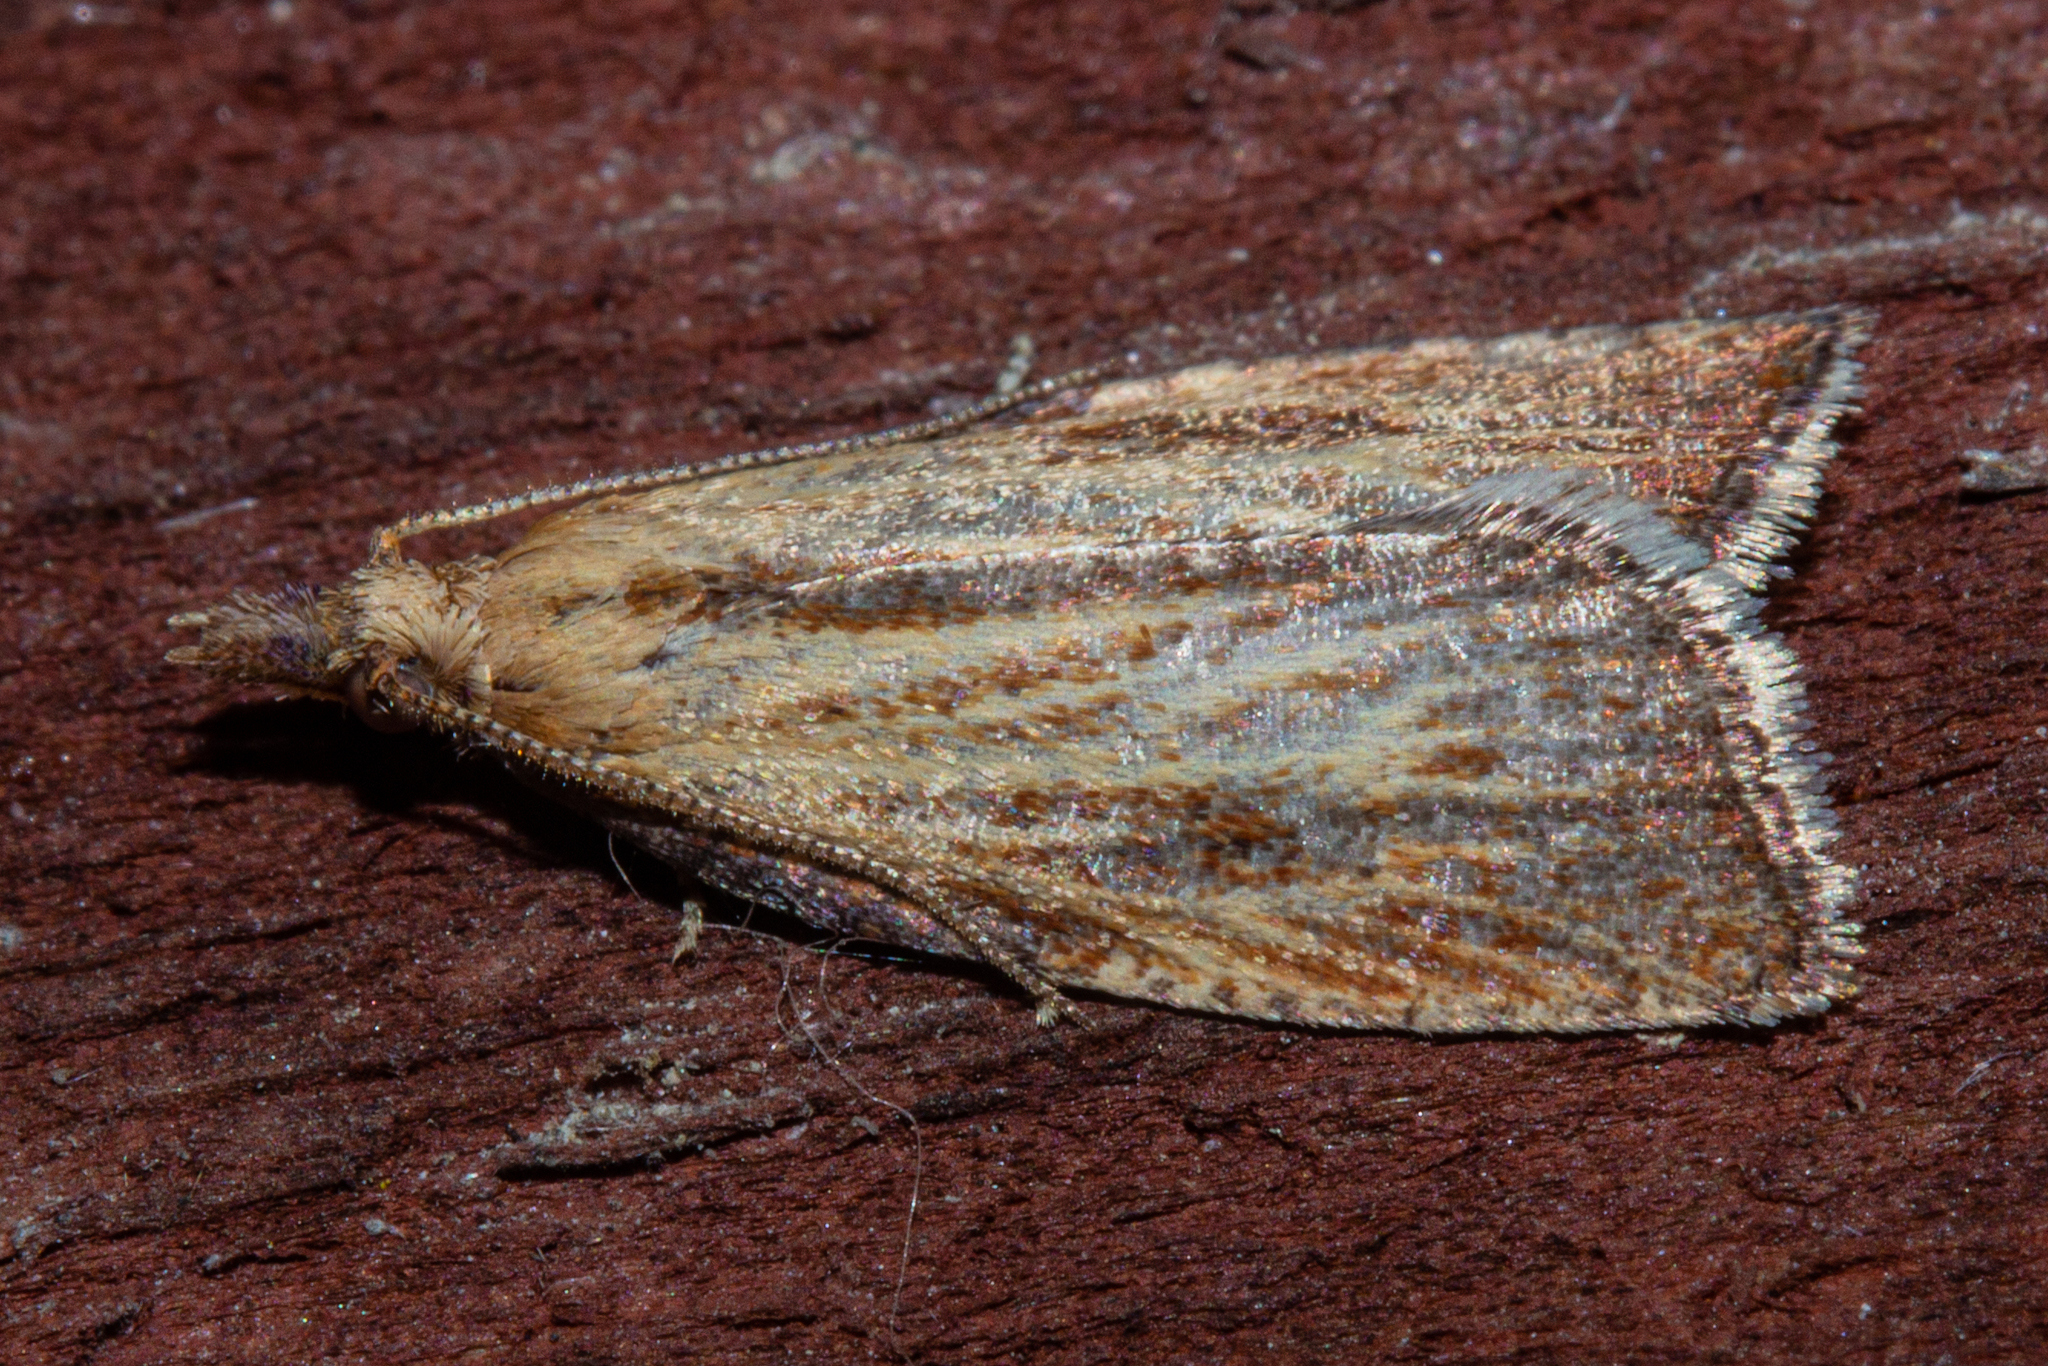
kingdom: Animalia
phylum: Arthropoda
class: Insecta
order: Lepidoptera
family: Tortricidae
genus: Catamacta
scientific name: Catamacta lotinana
